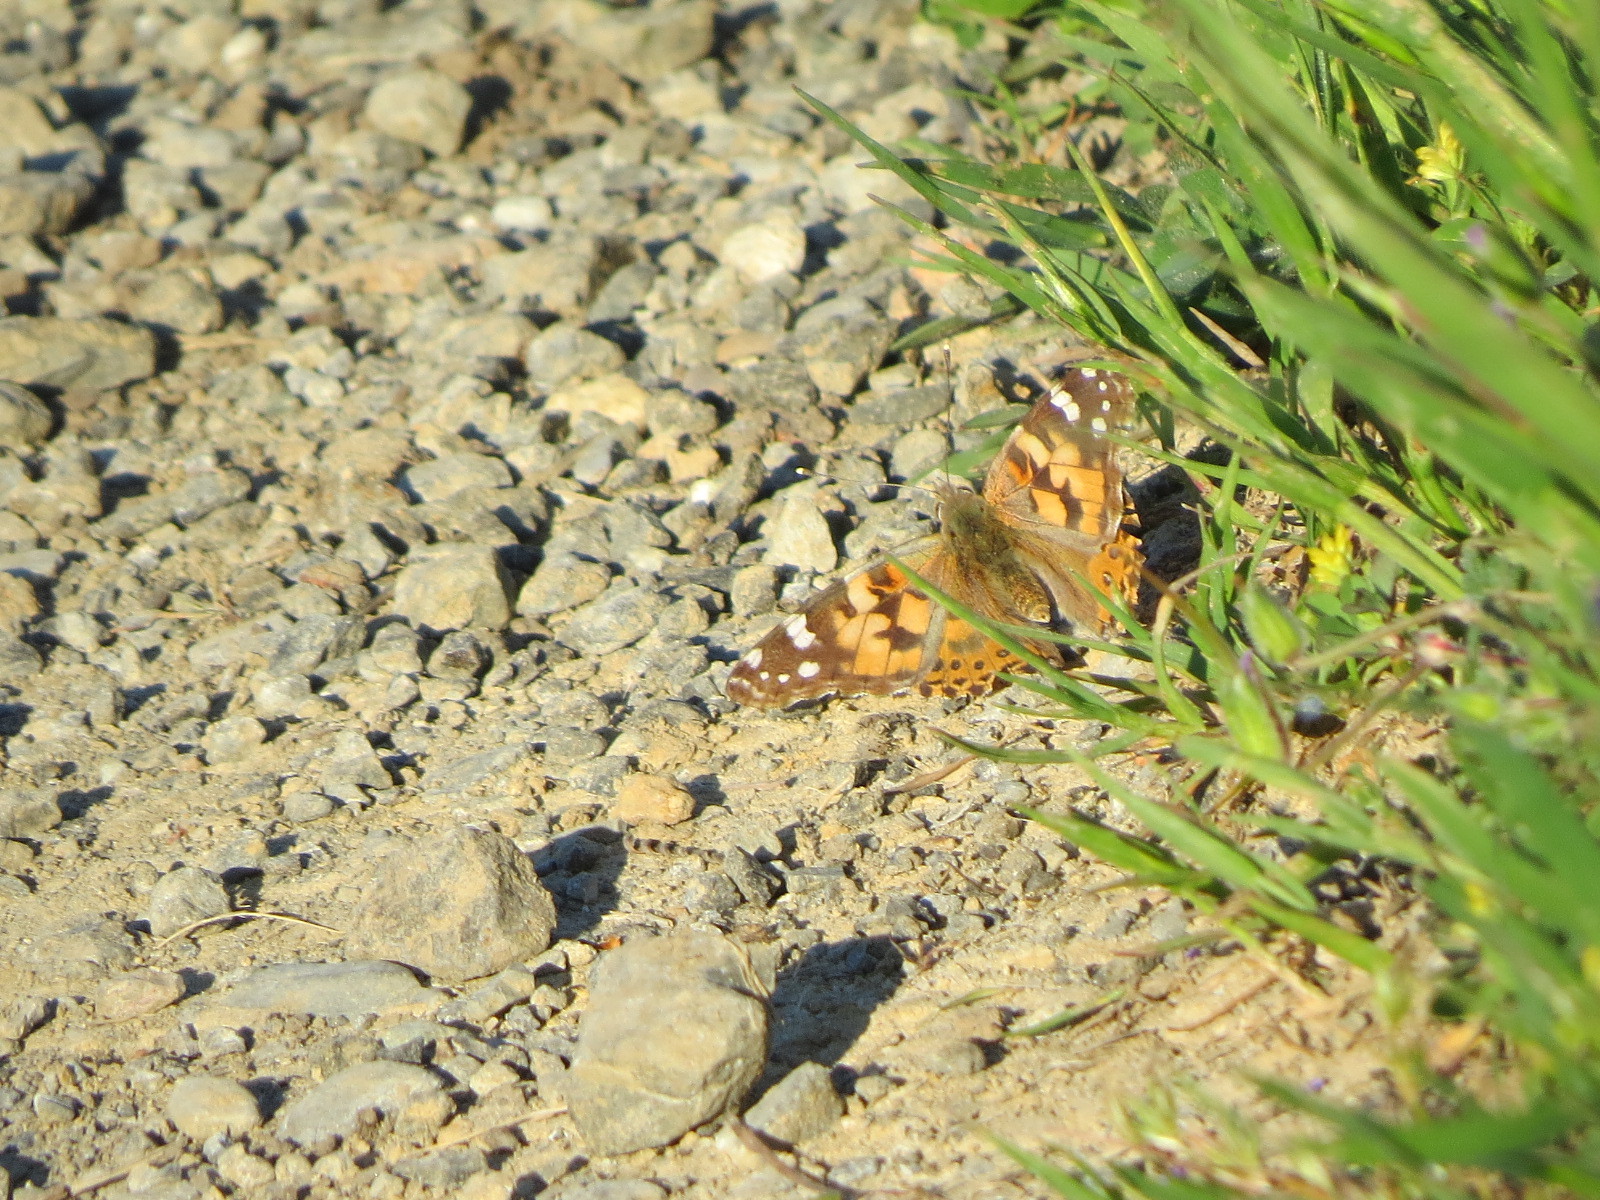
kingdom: Animalia
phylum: Arthropoda
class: Insecta
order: Lepidoptera
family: Nymphalidae
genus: Vanessa
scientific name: Vanessa cardui
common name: Painted lady
